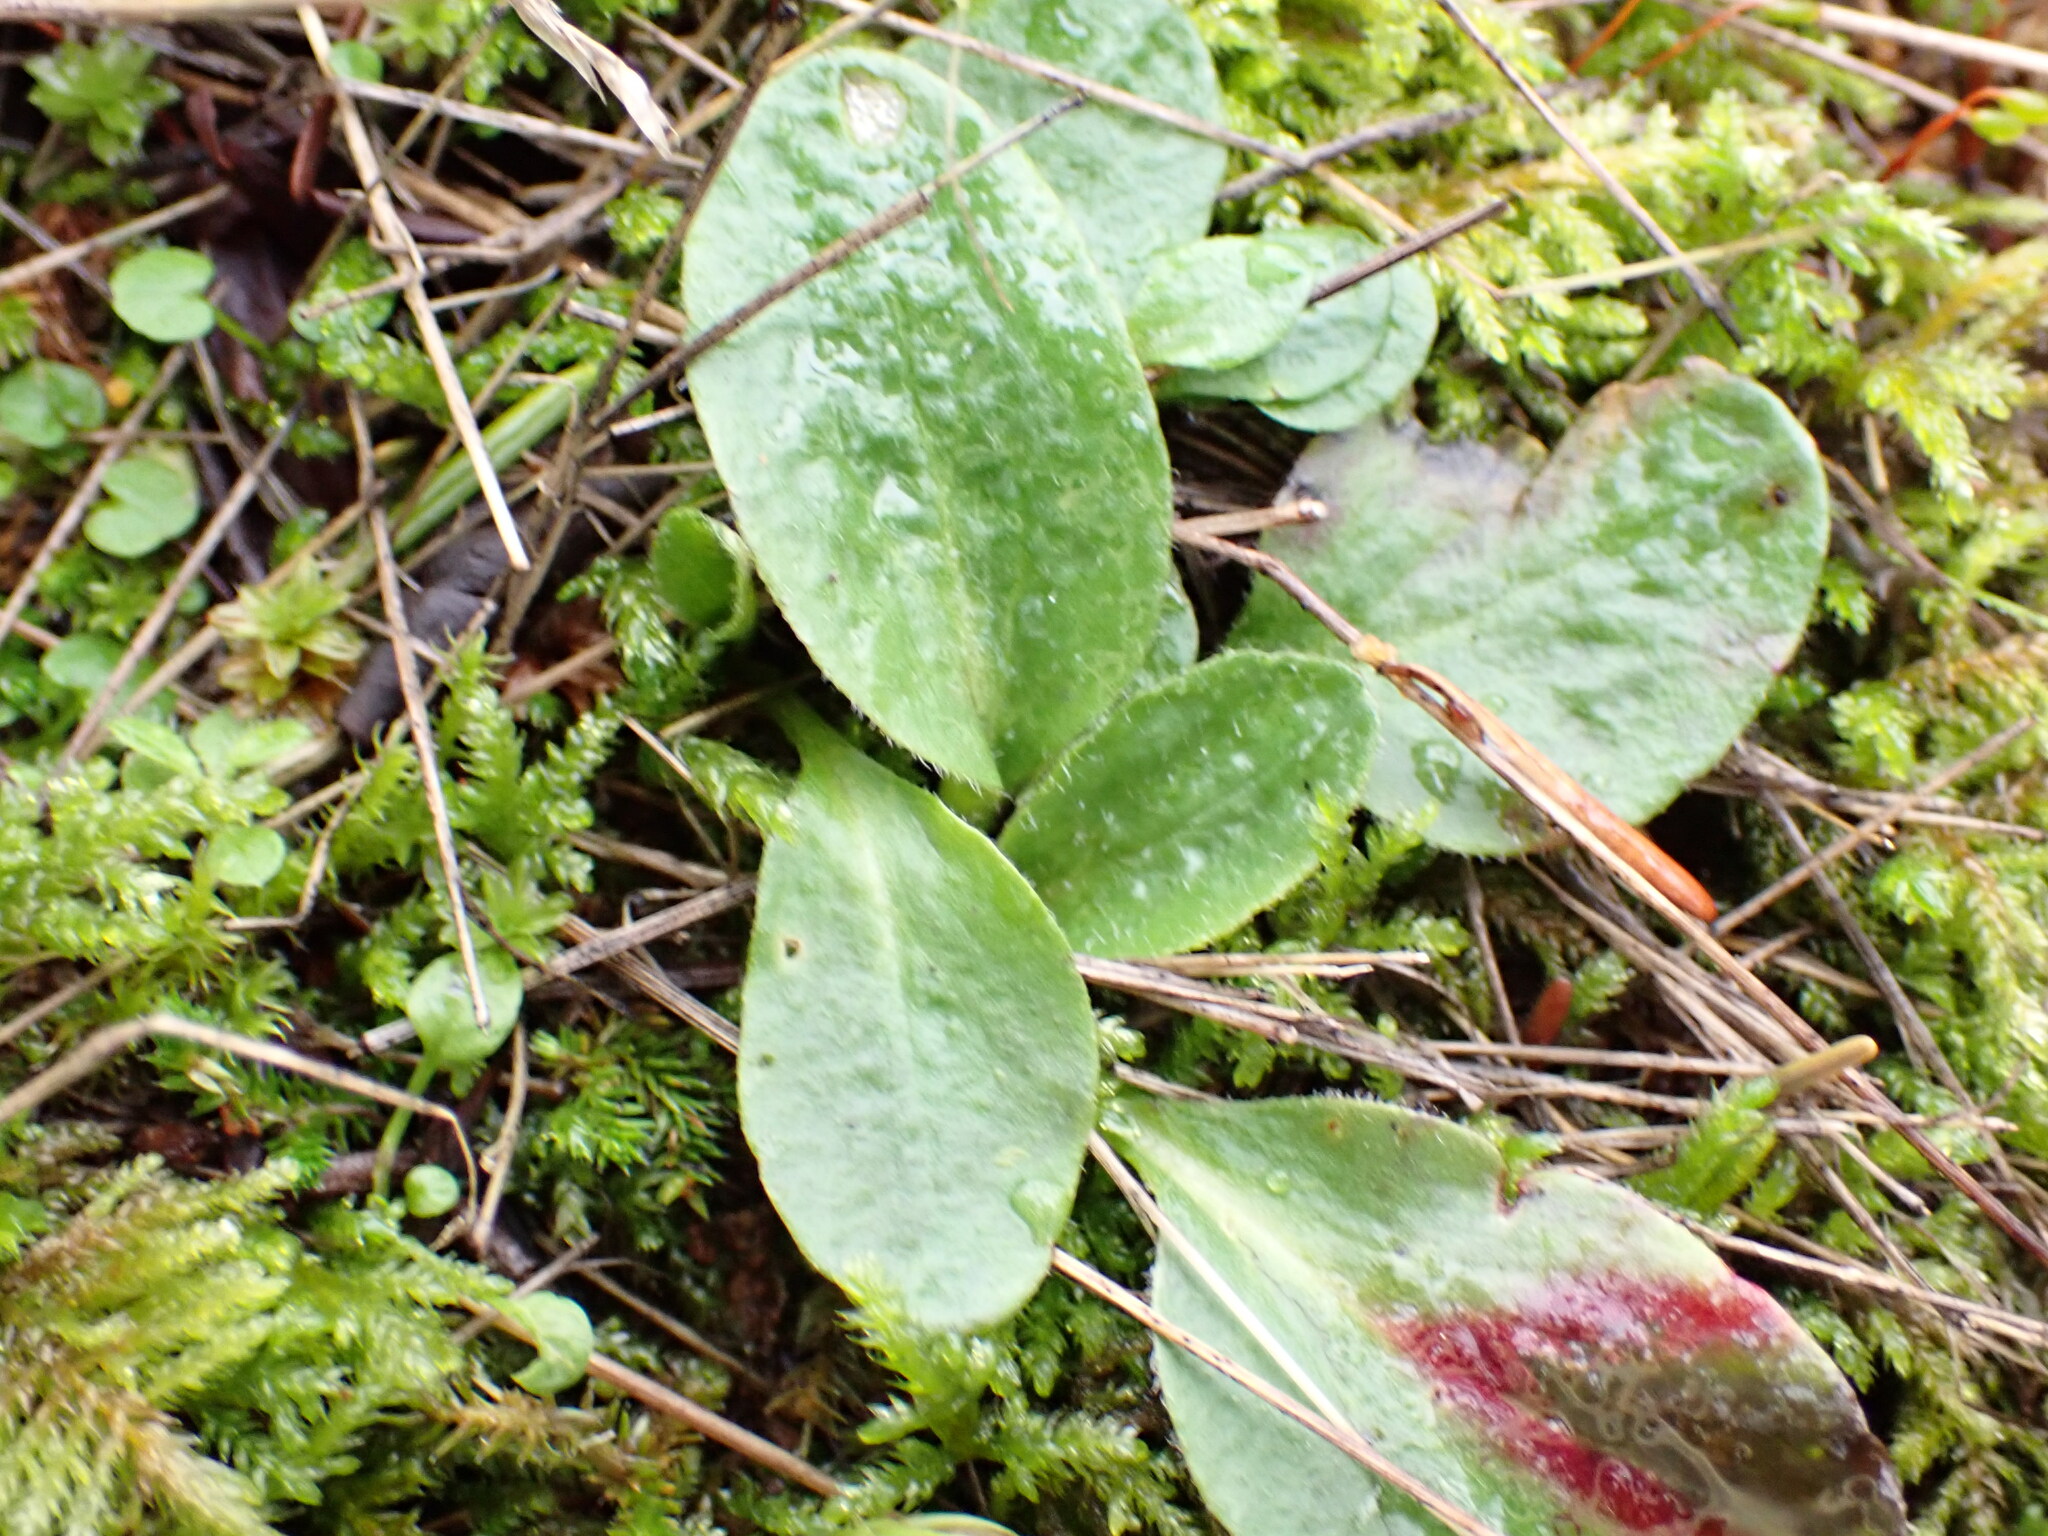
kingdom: Plantae
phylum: Tracheophyta
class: Magnoliopsida
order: Saxifragales
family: Saxifragaceae
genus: Micranthes
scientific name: Micranthes integrifolia
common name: Wholeleaf saxifrage
